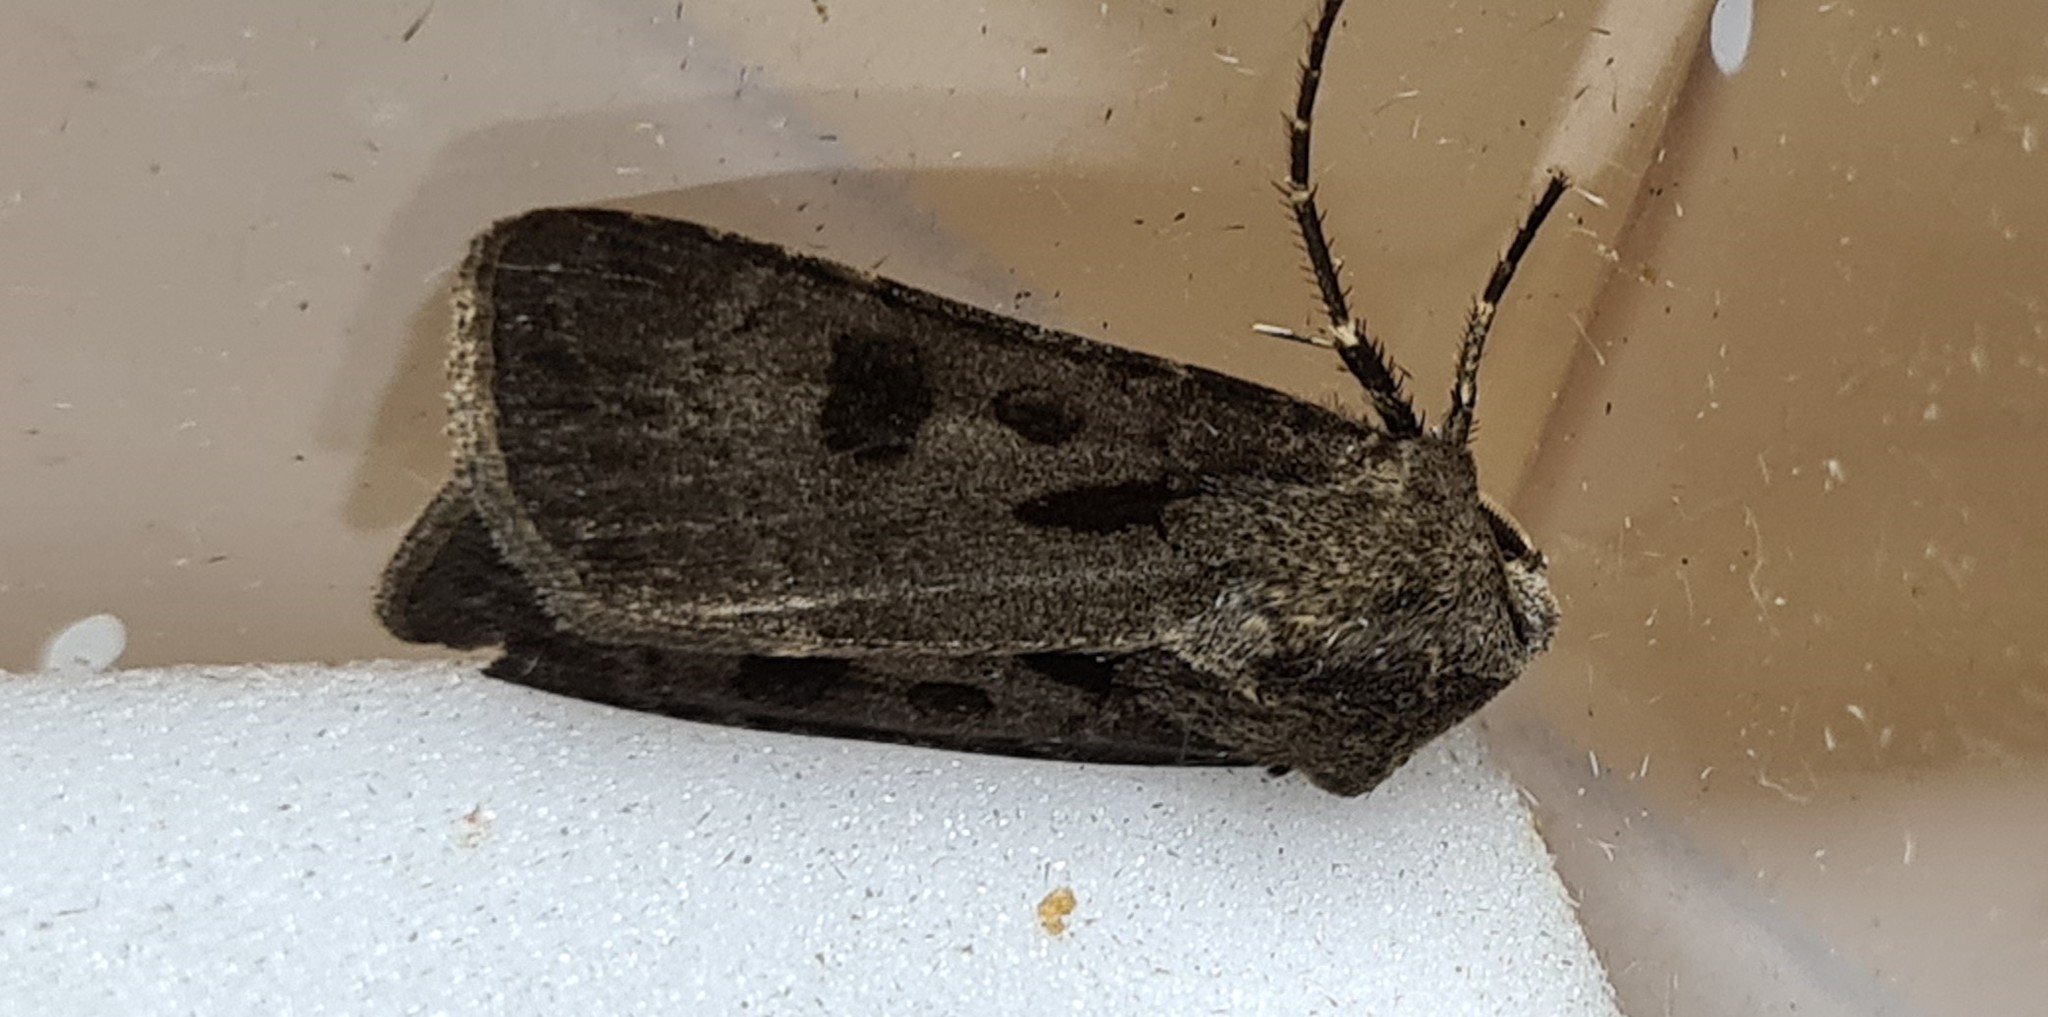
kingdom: Animalia
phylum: Arthropoda
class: Insecta
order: Lepidoptera
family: Noctuidae
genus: Agrotis
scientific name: Agrotis exclamationis
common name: Heart and dart
